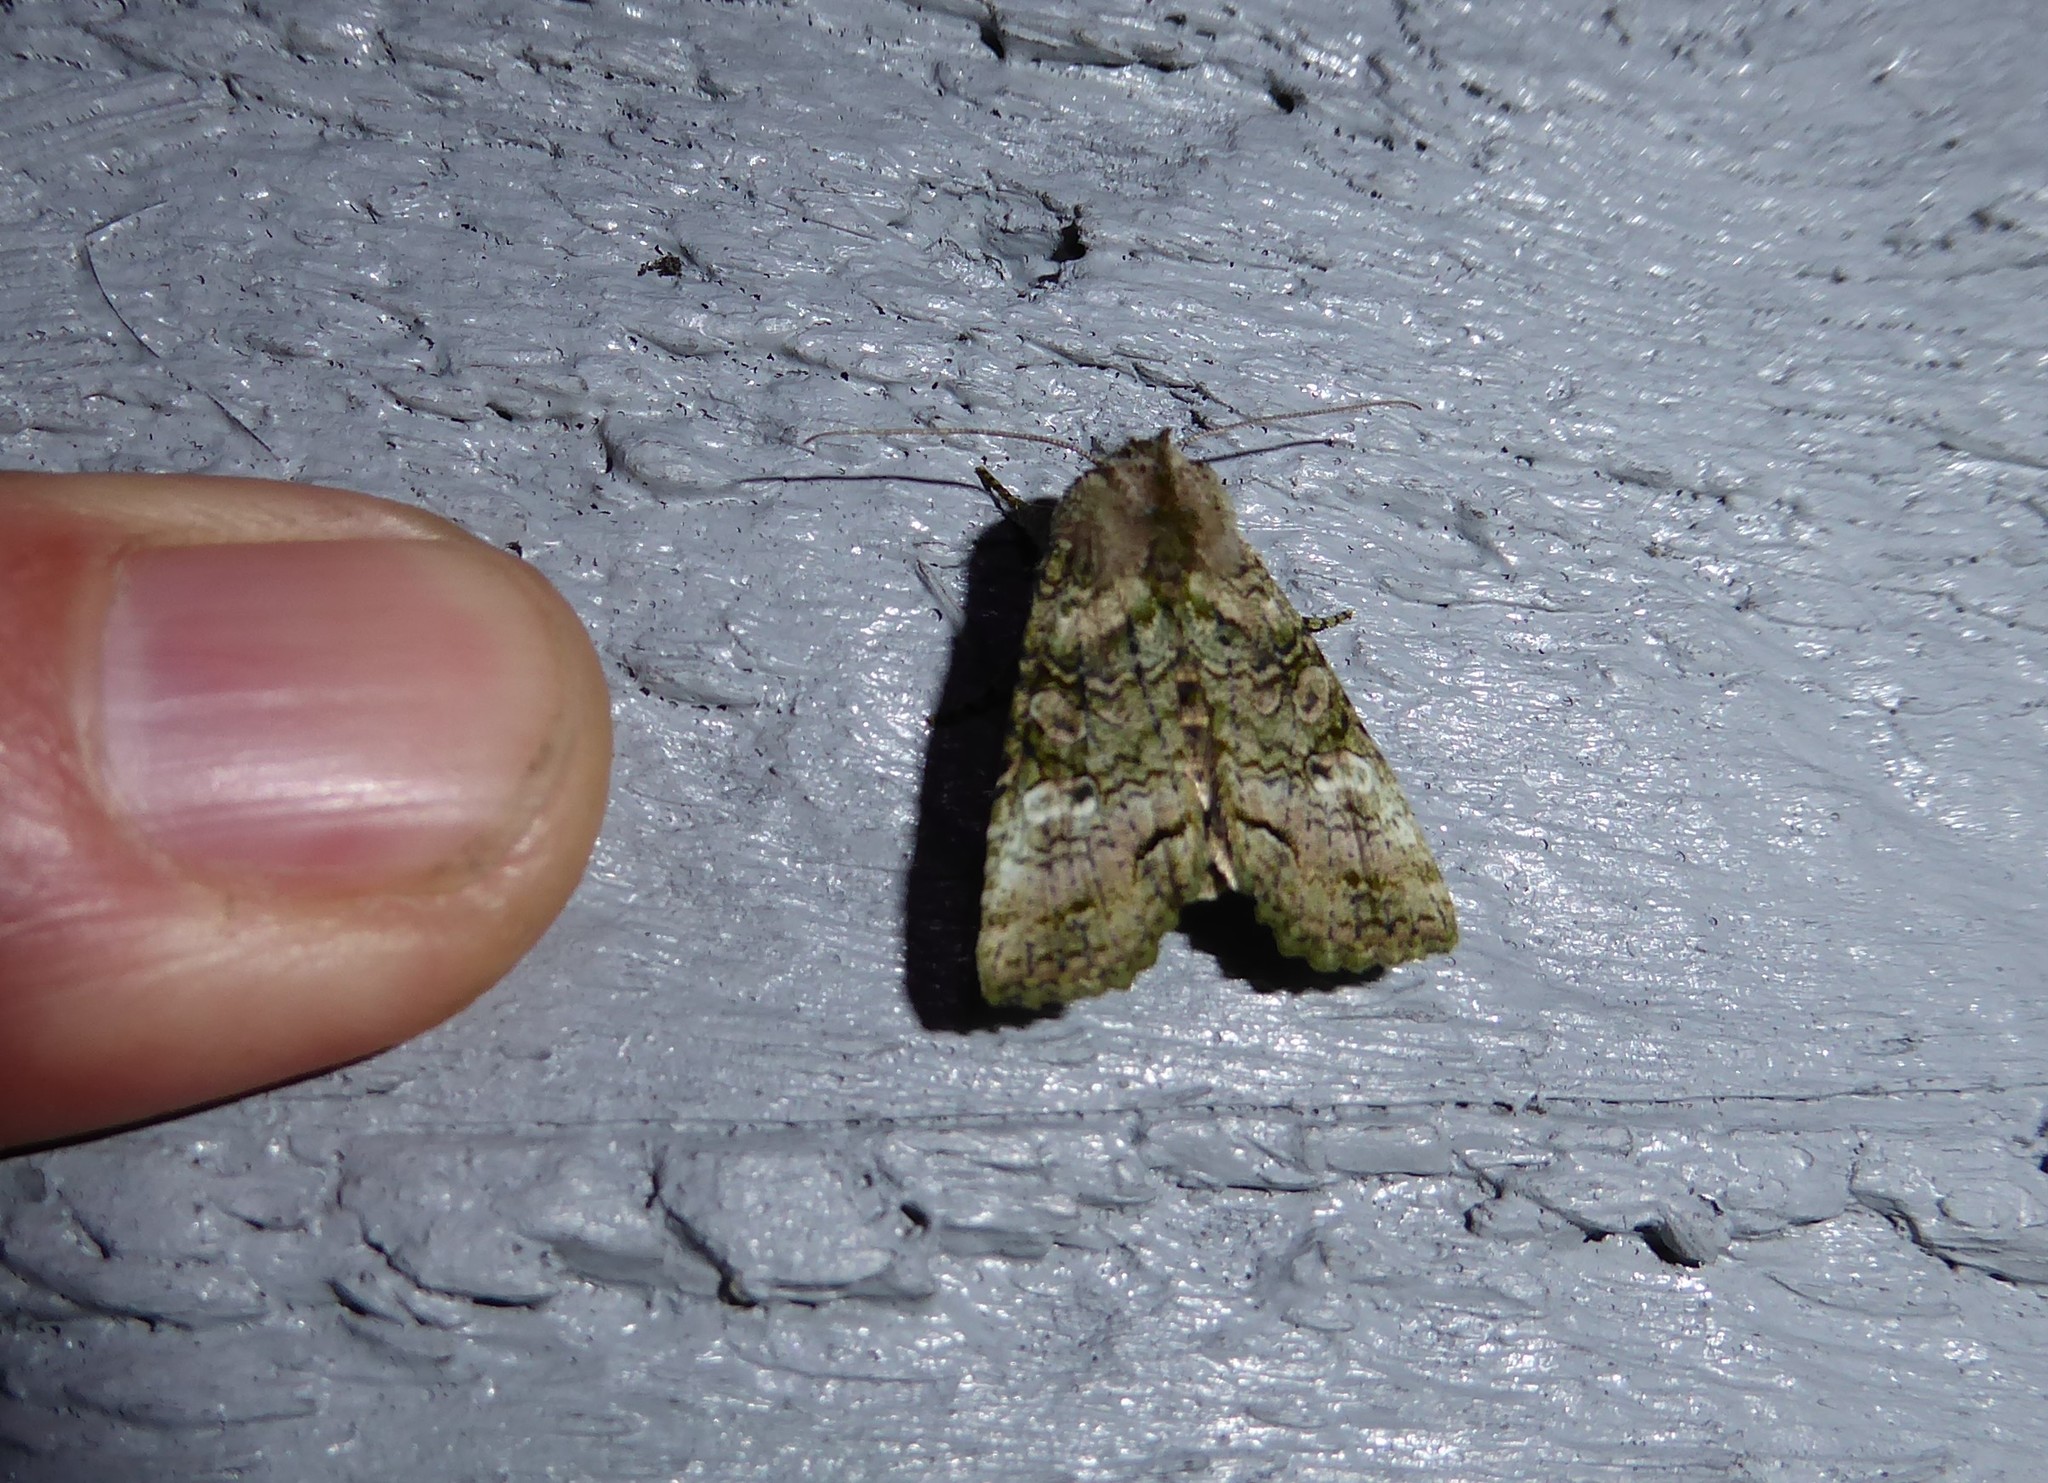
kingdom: Animalia
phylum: Arthropoda
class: Insecta
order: Lepidoptera
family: Noctuidae
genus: Meterana
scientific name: Meterana levis
